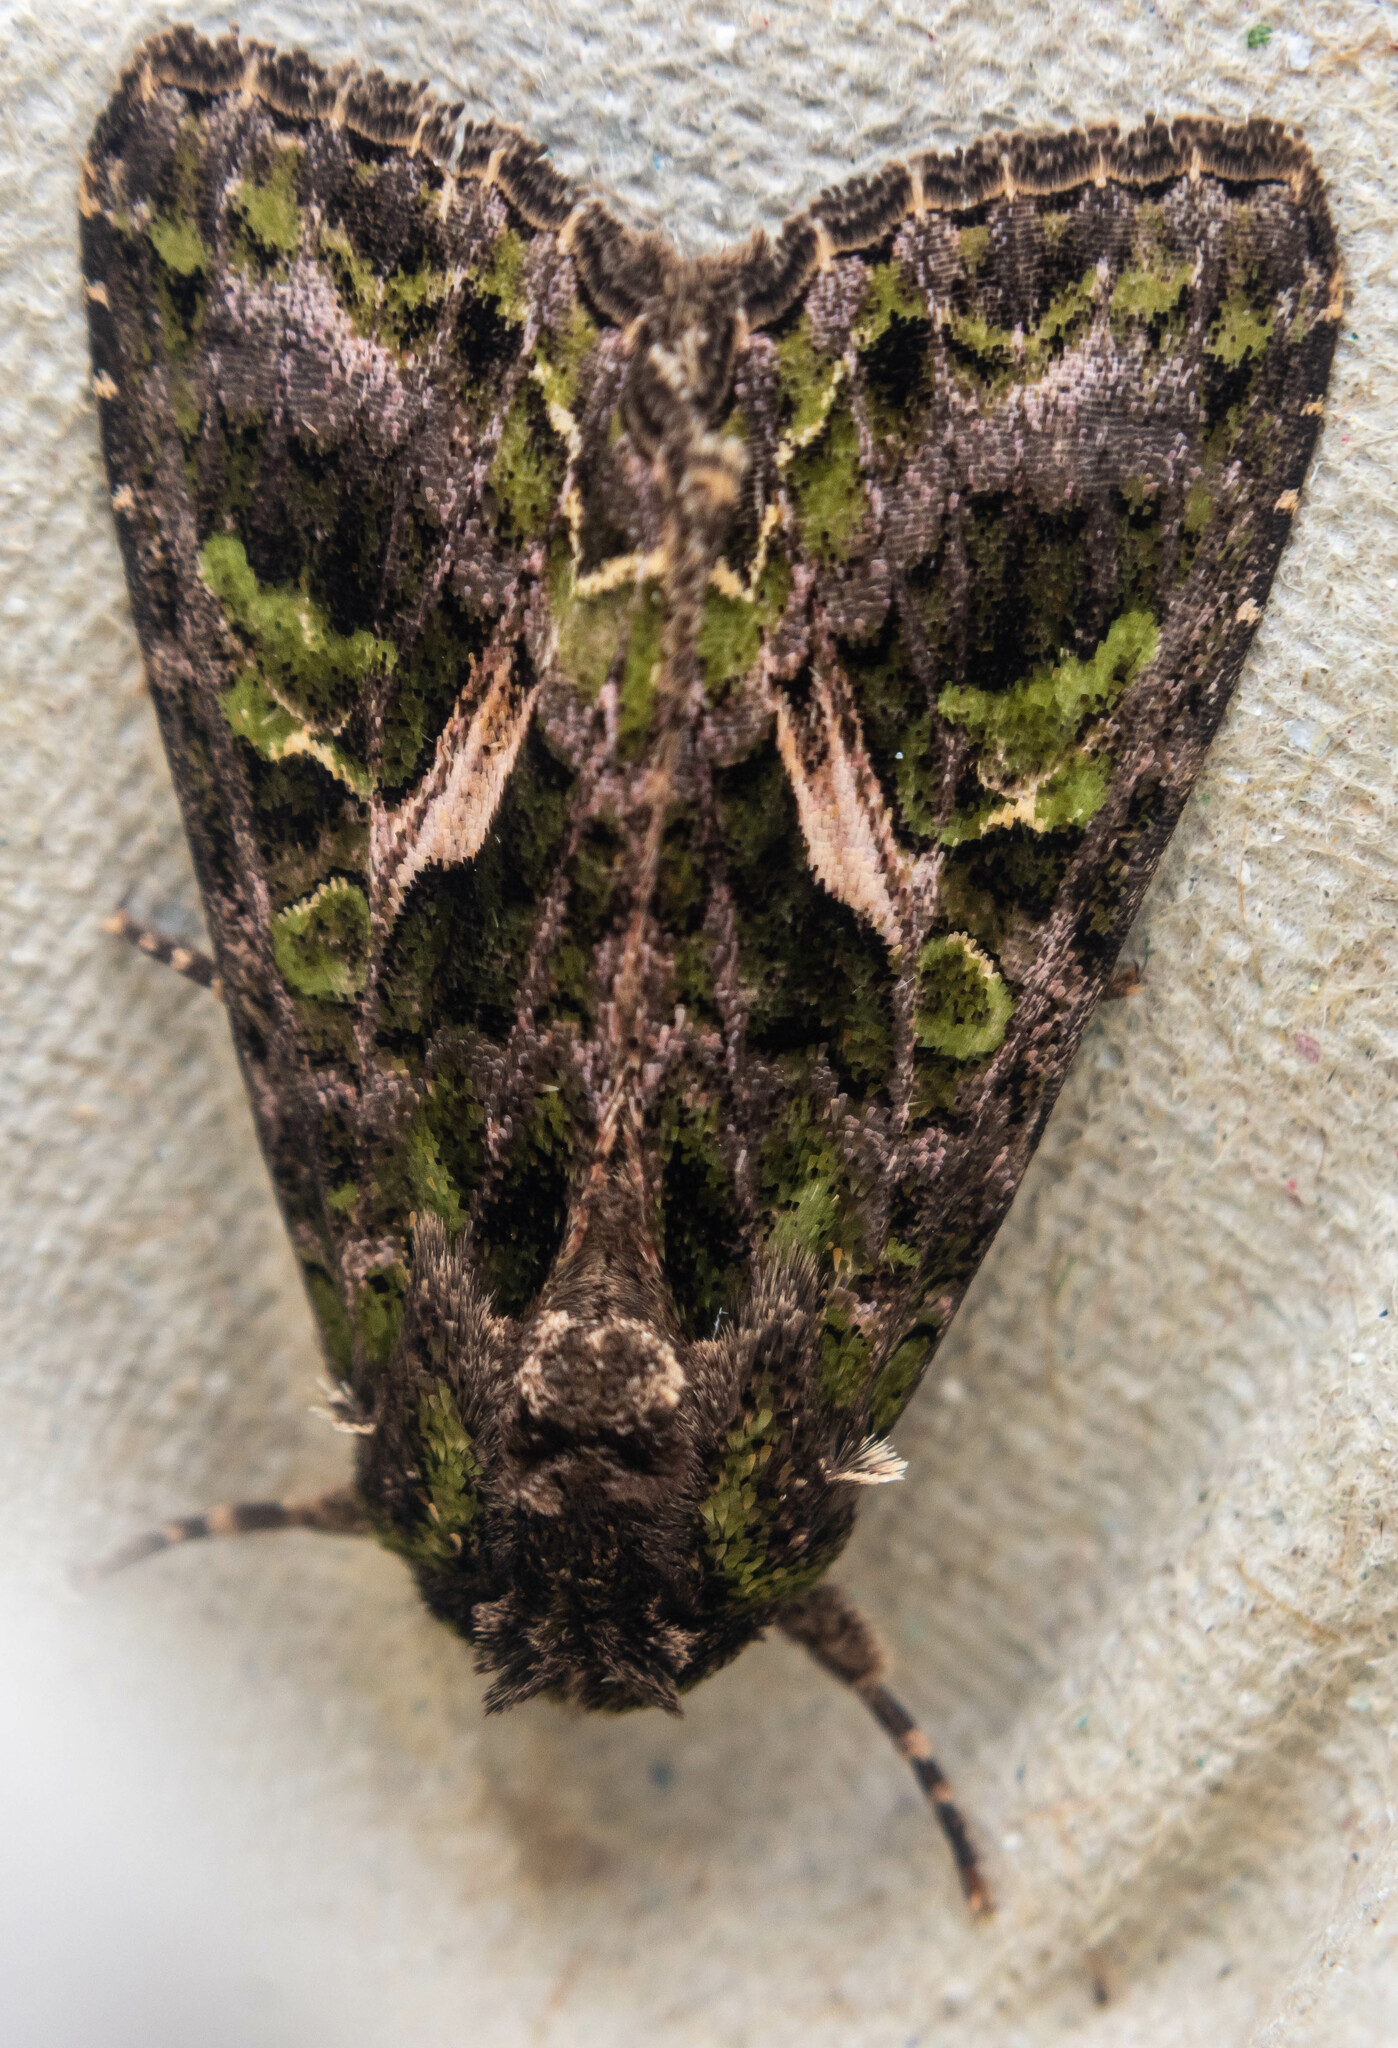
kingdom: Animalia
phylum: Arthropoda
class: Insecta
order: Lepidoptera
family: Noctuidae
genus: Trachea
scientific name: Trachea atriplicis
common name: Orache moth
